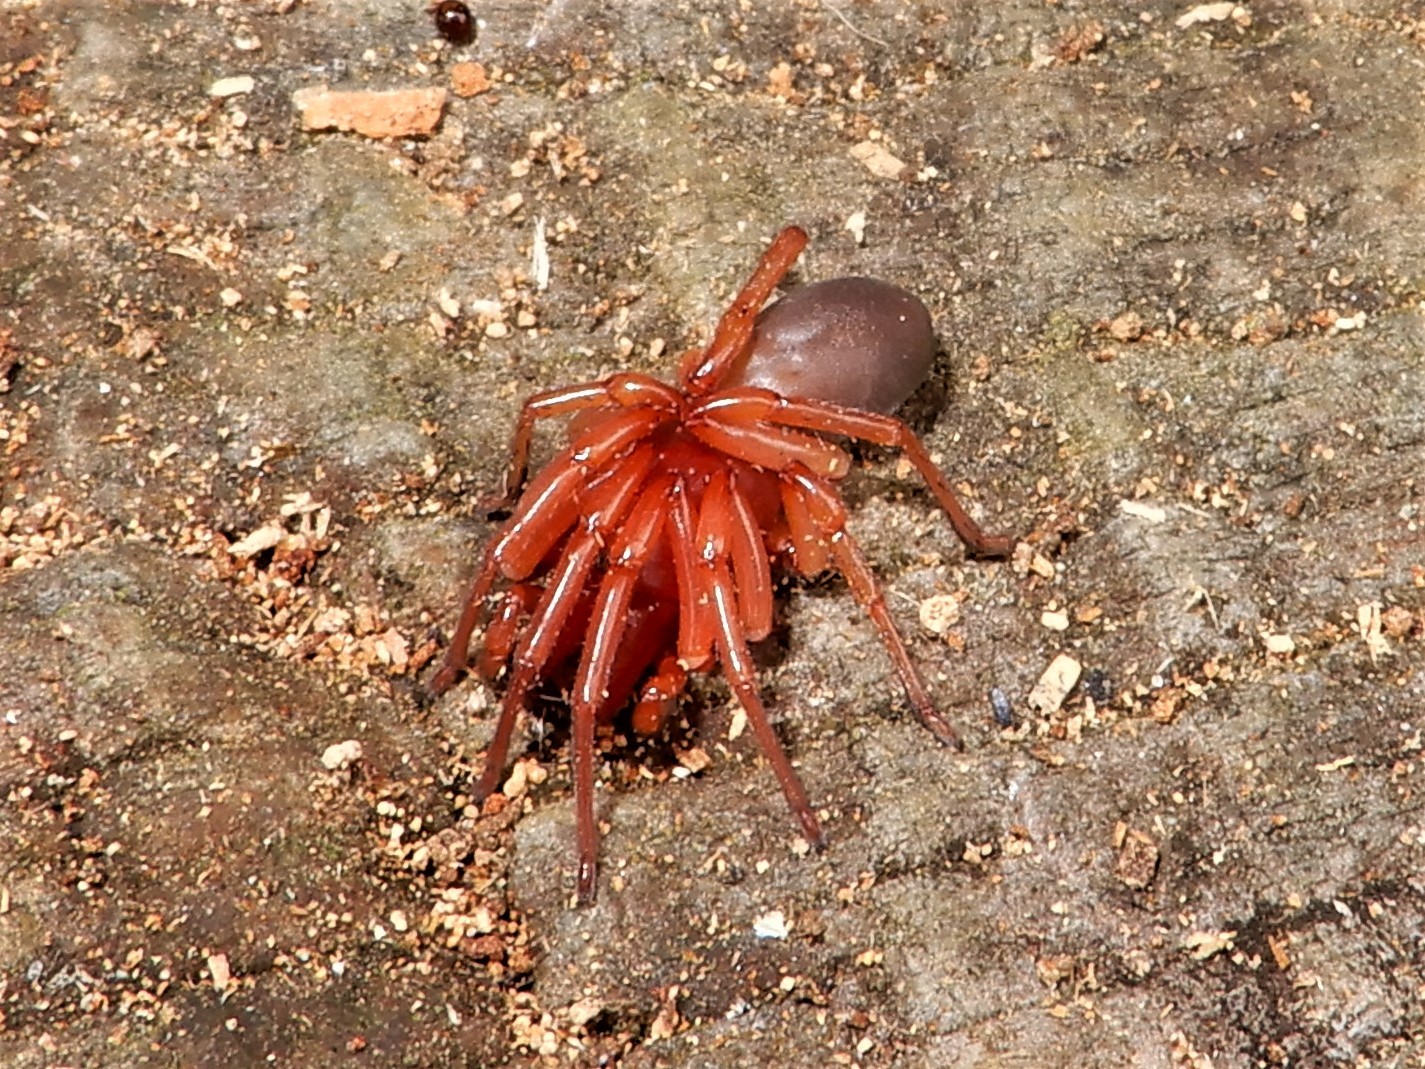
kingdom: Animalia
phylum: Arthropoda
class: Arachnida
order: Araneae
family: Dysderidae
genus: Dysdera
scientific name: Dysdera crocata
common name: Woodlouse spider
